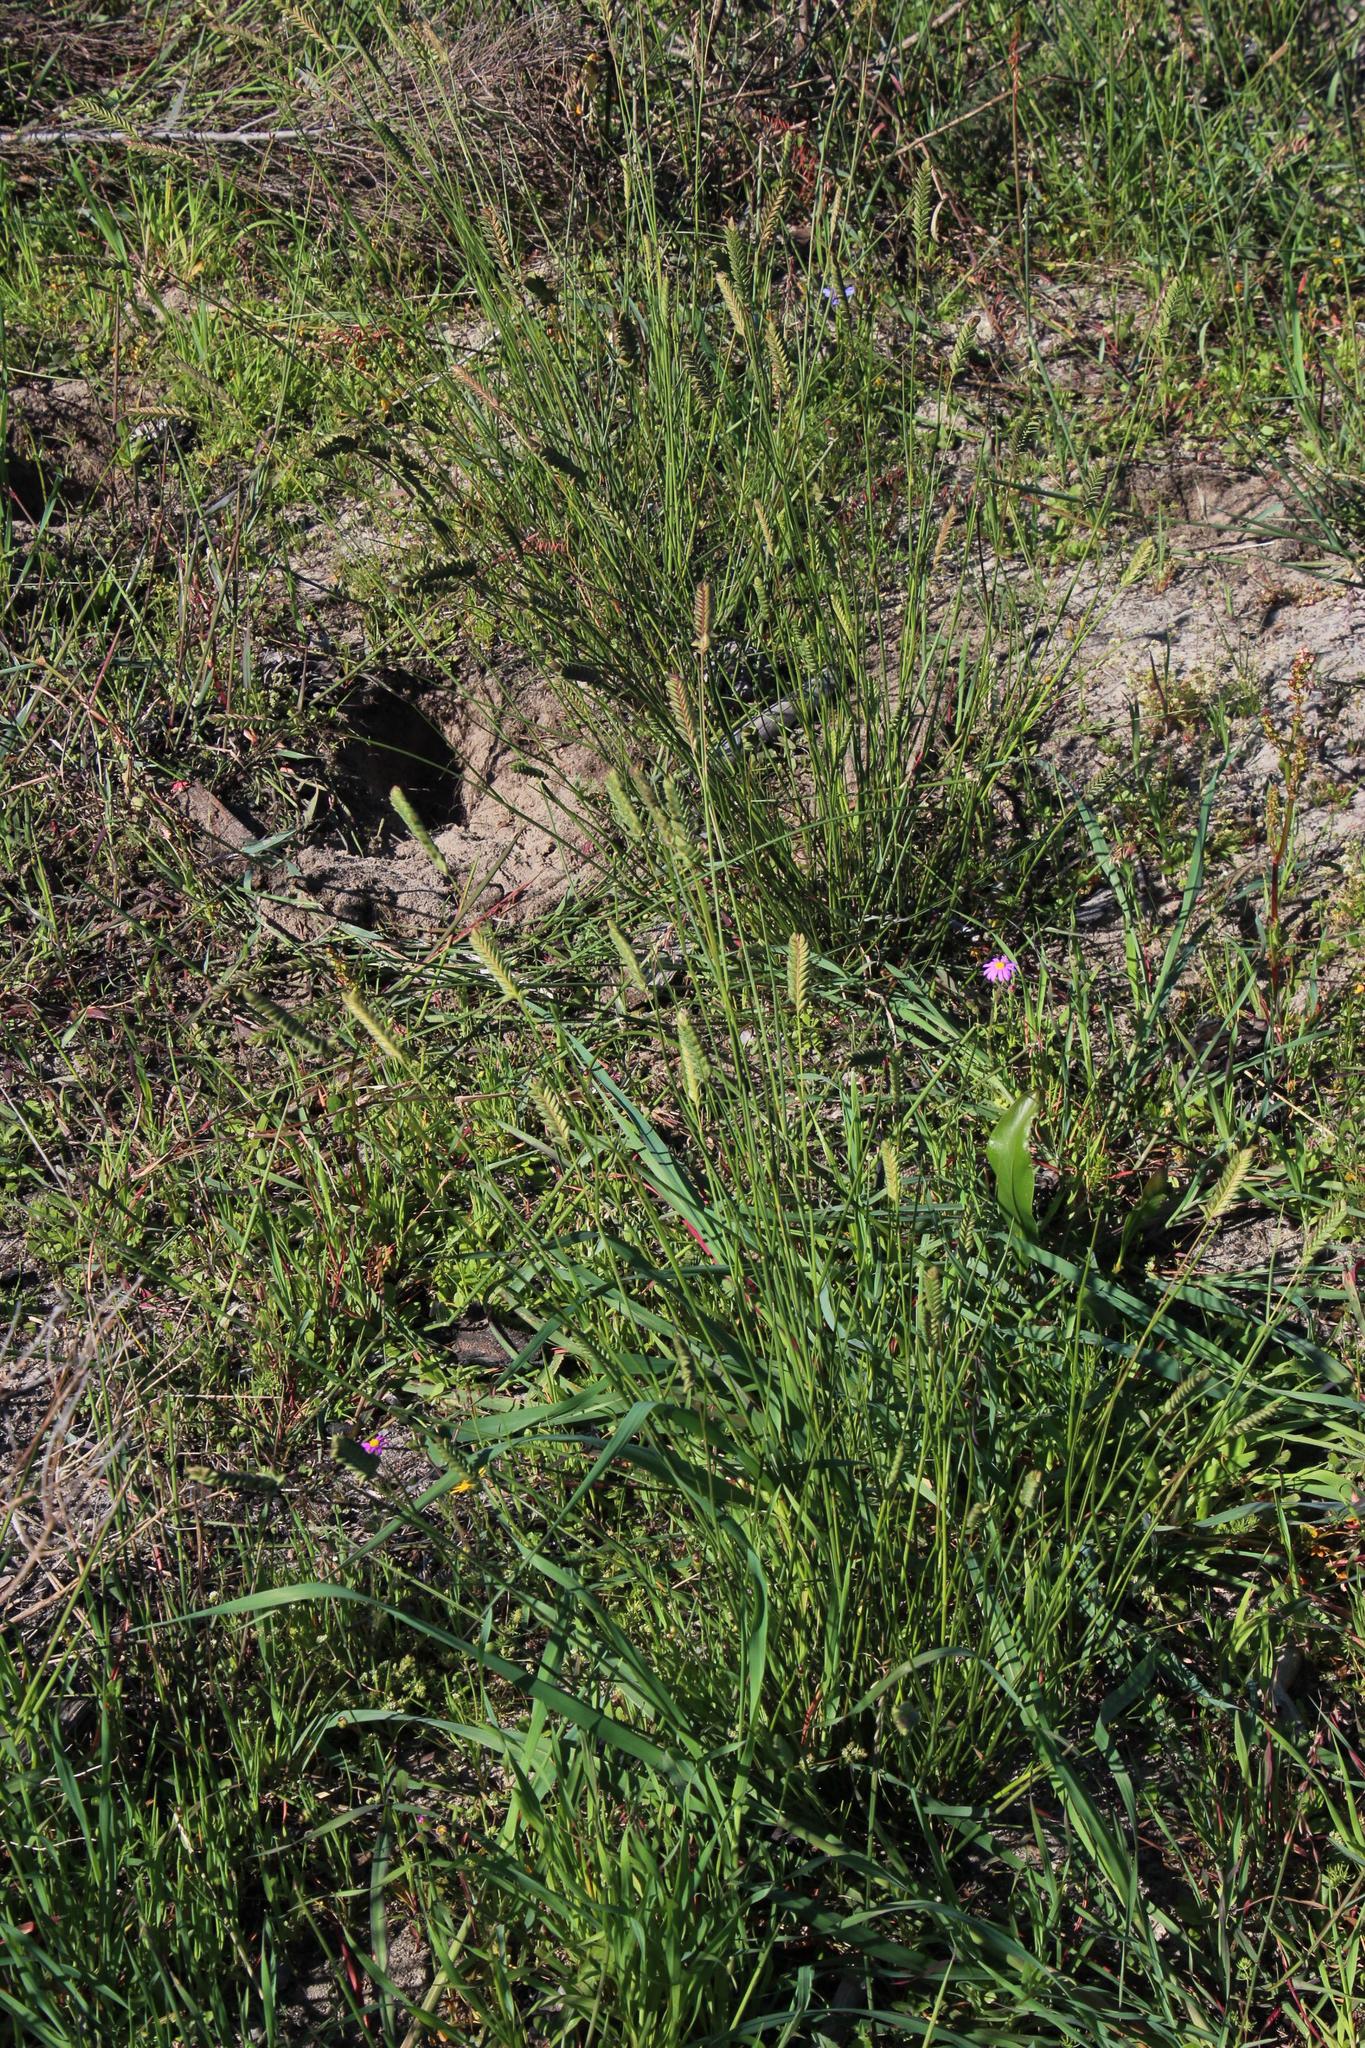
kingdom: Plantae
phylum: Tracheophyta
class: Liliopsida
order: Poales
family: Poaceae
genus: Tribolium
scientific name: Tribolium uniolae
